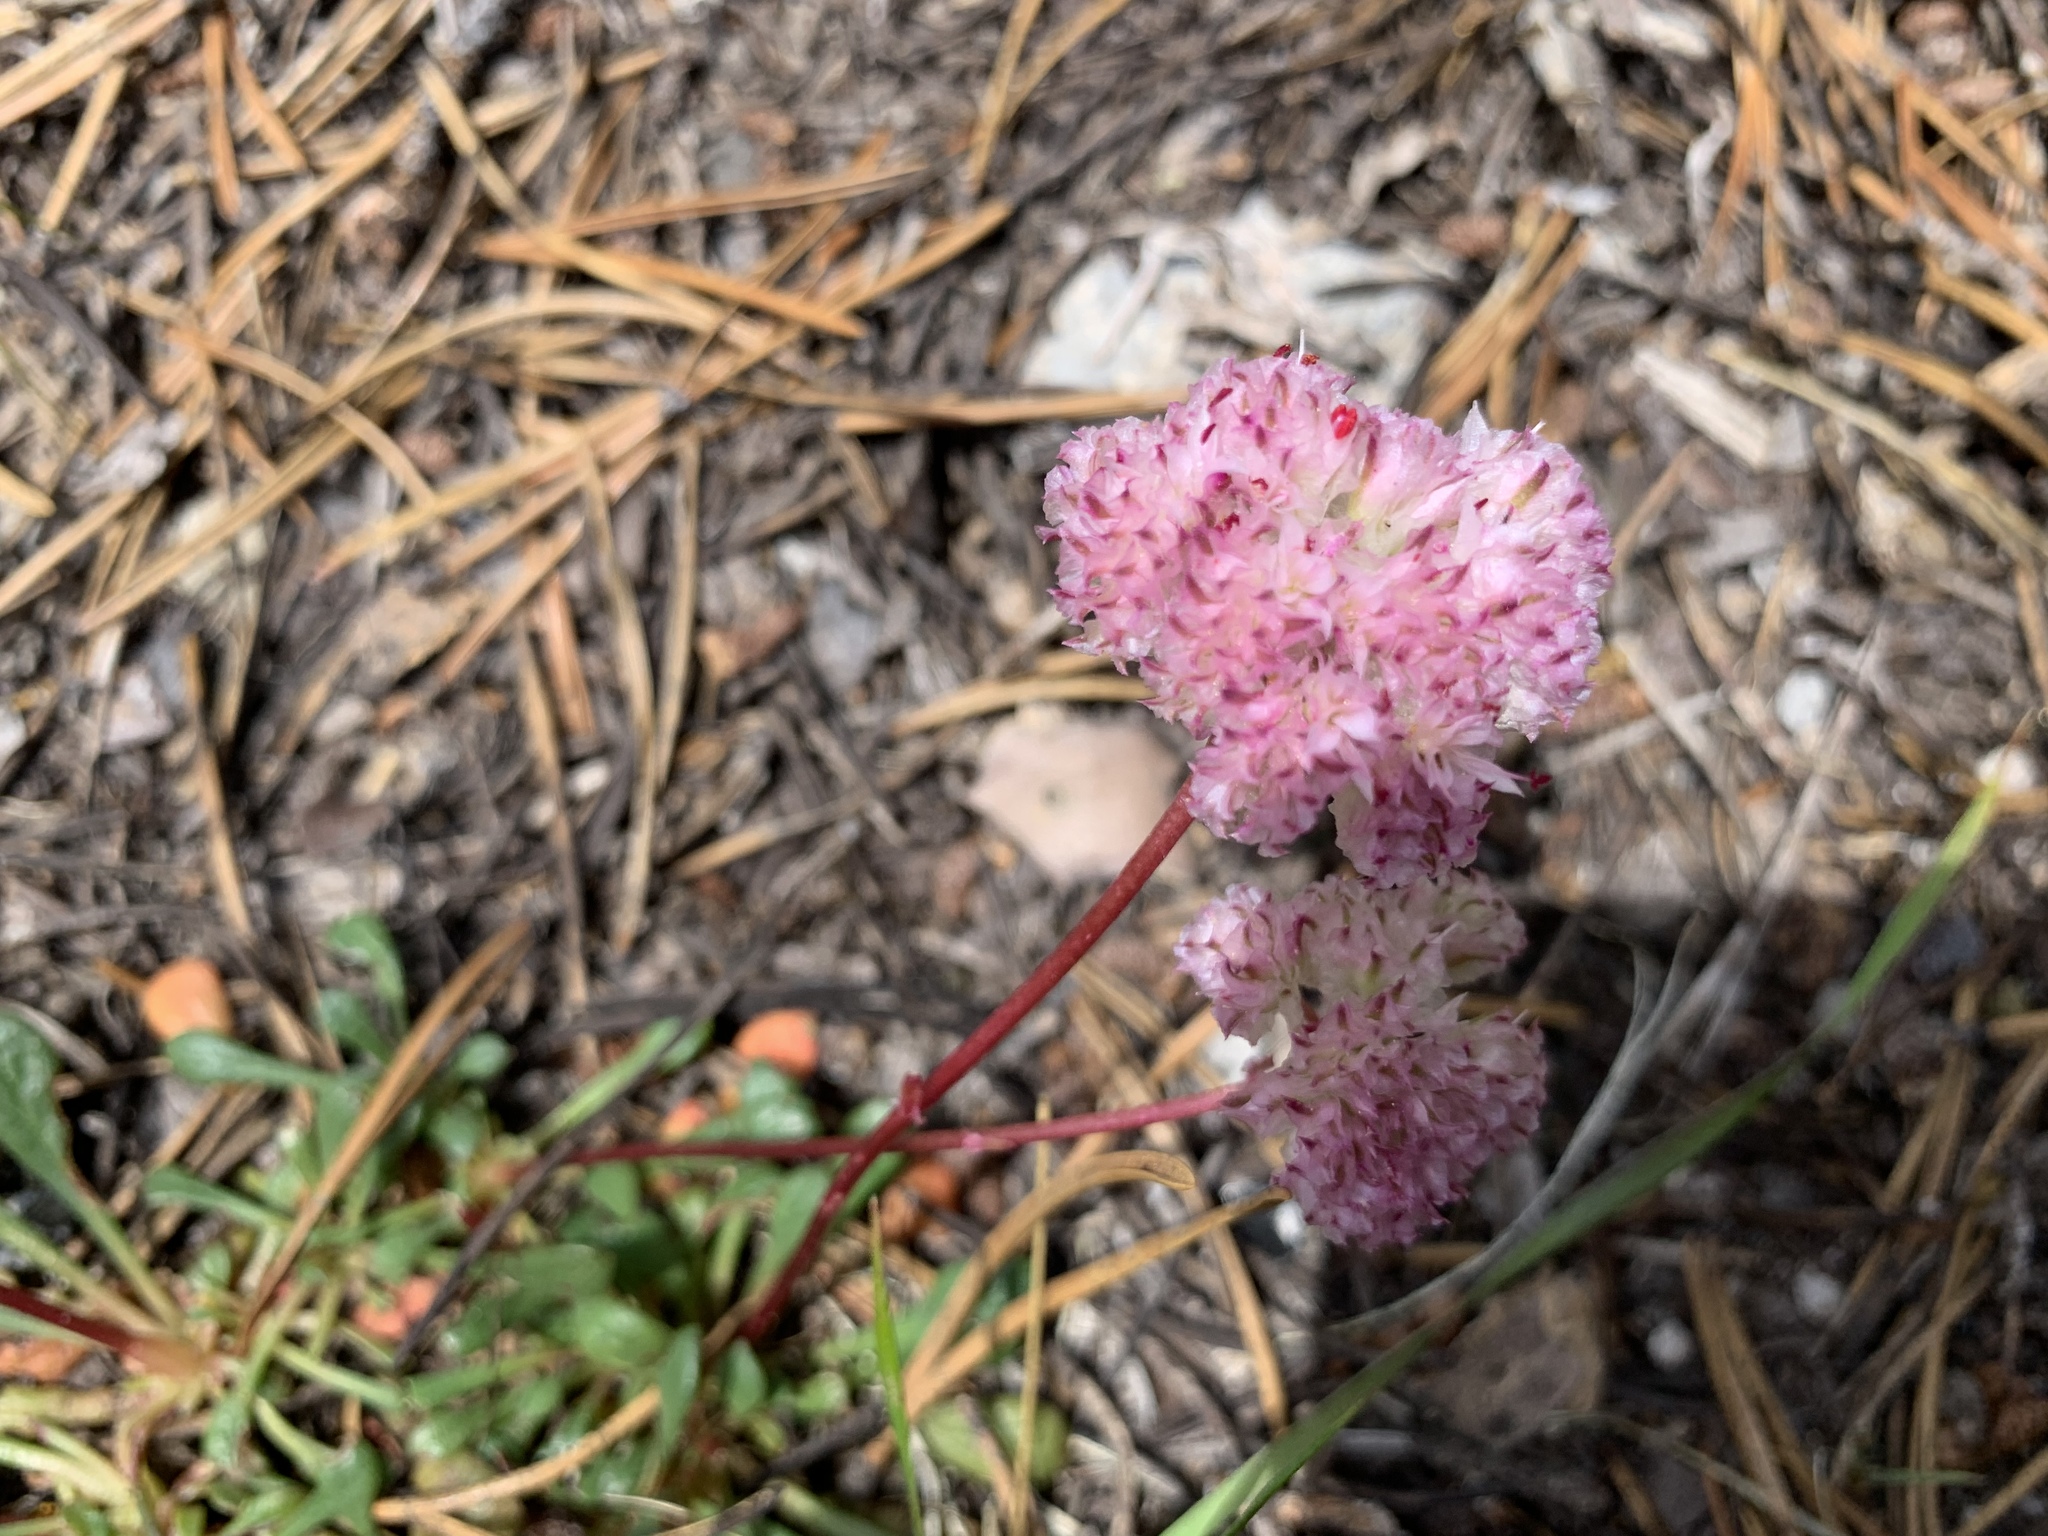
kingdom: Plantae
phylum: Tracheophyta
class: Magnoliopsida
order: Caryophyllales
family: Montiaceae
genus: Calyptridium
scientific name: Calyptridium umbellatum
